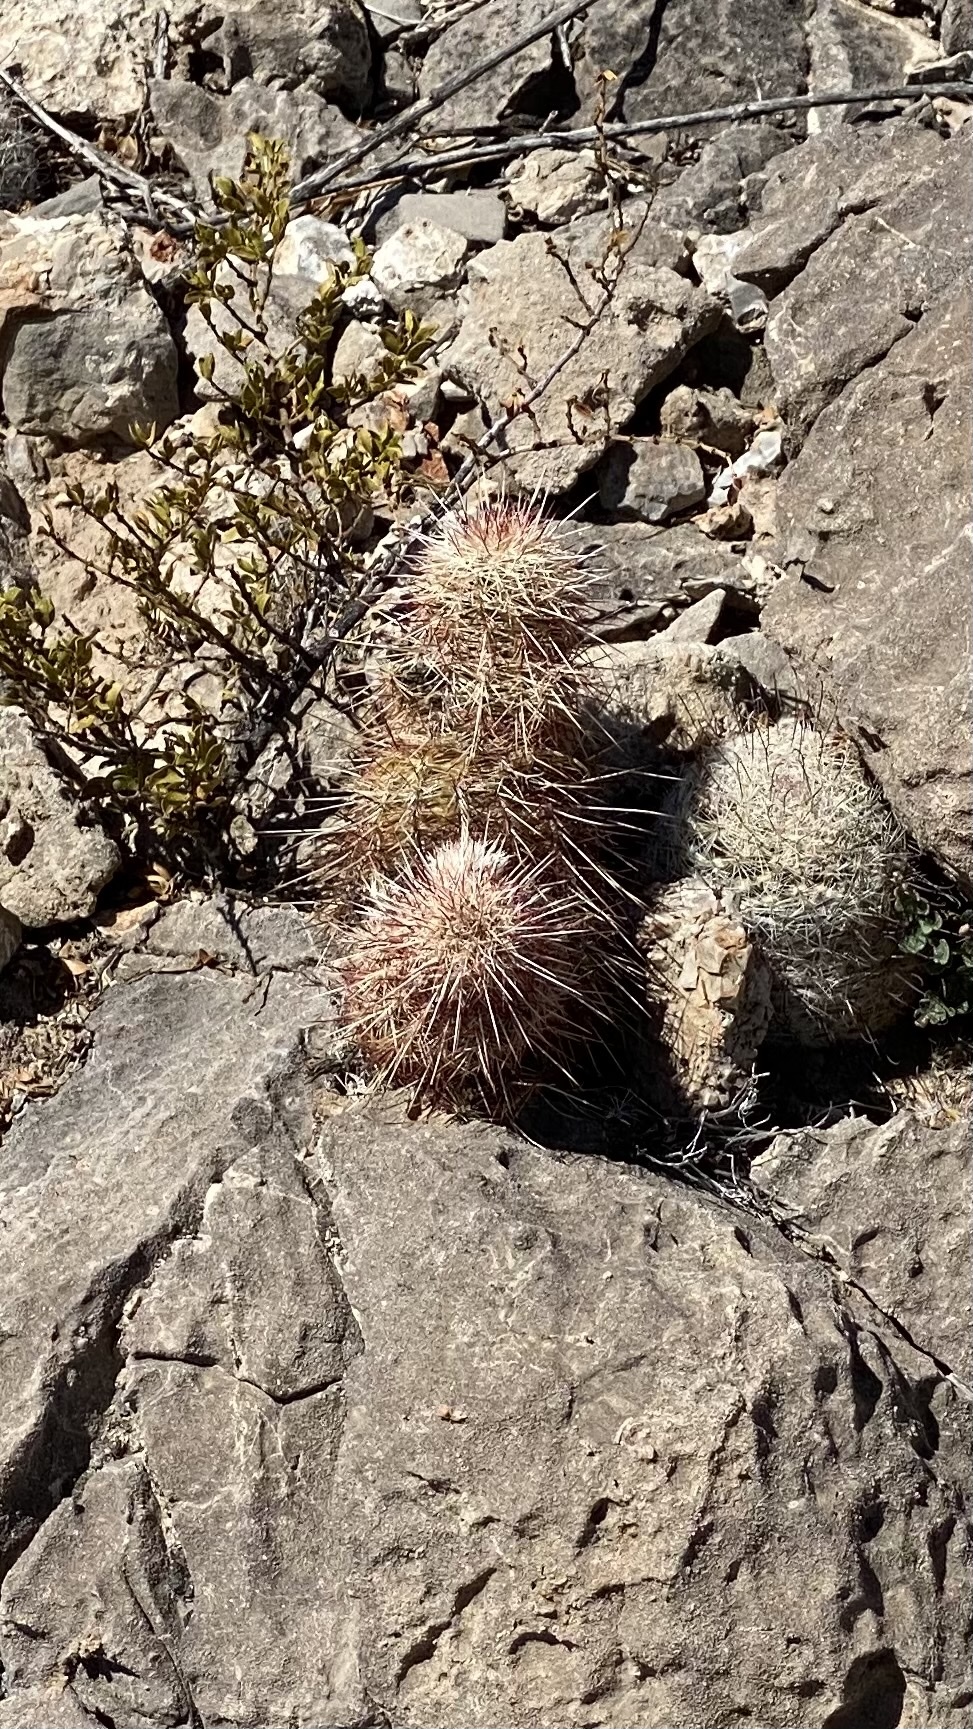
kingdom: Plantae
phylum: Tracheophyta
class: Magnoliopsida
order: Caryophyllales
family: Cactaceae
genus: Echinocereus
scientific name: Echinocereus viridiflorus
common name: Nylon hedgehog cactus
